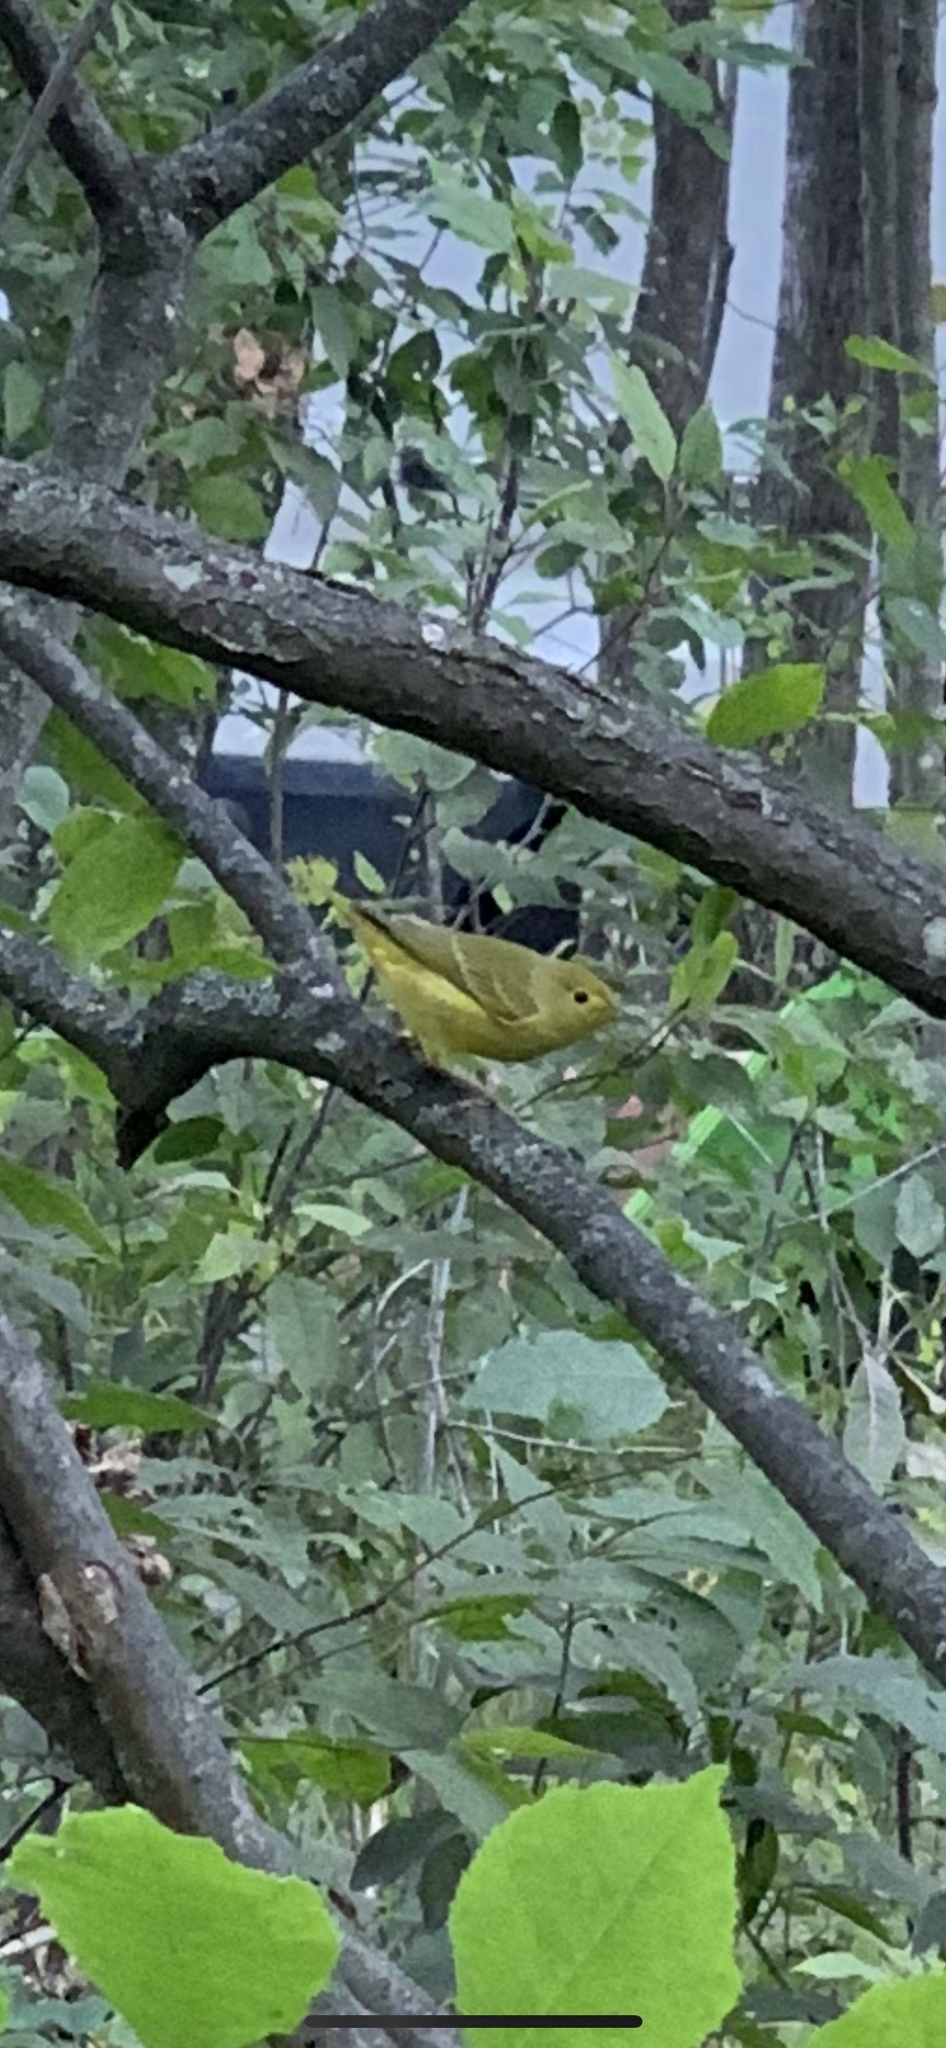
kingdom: Animalia
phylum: Chordata
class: Aves
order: Passeriformes
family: Parulidae
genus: Setophaga
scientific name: Setophaga petechia
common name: Yellow warbler
